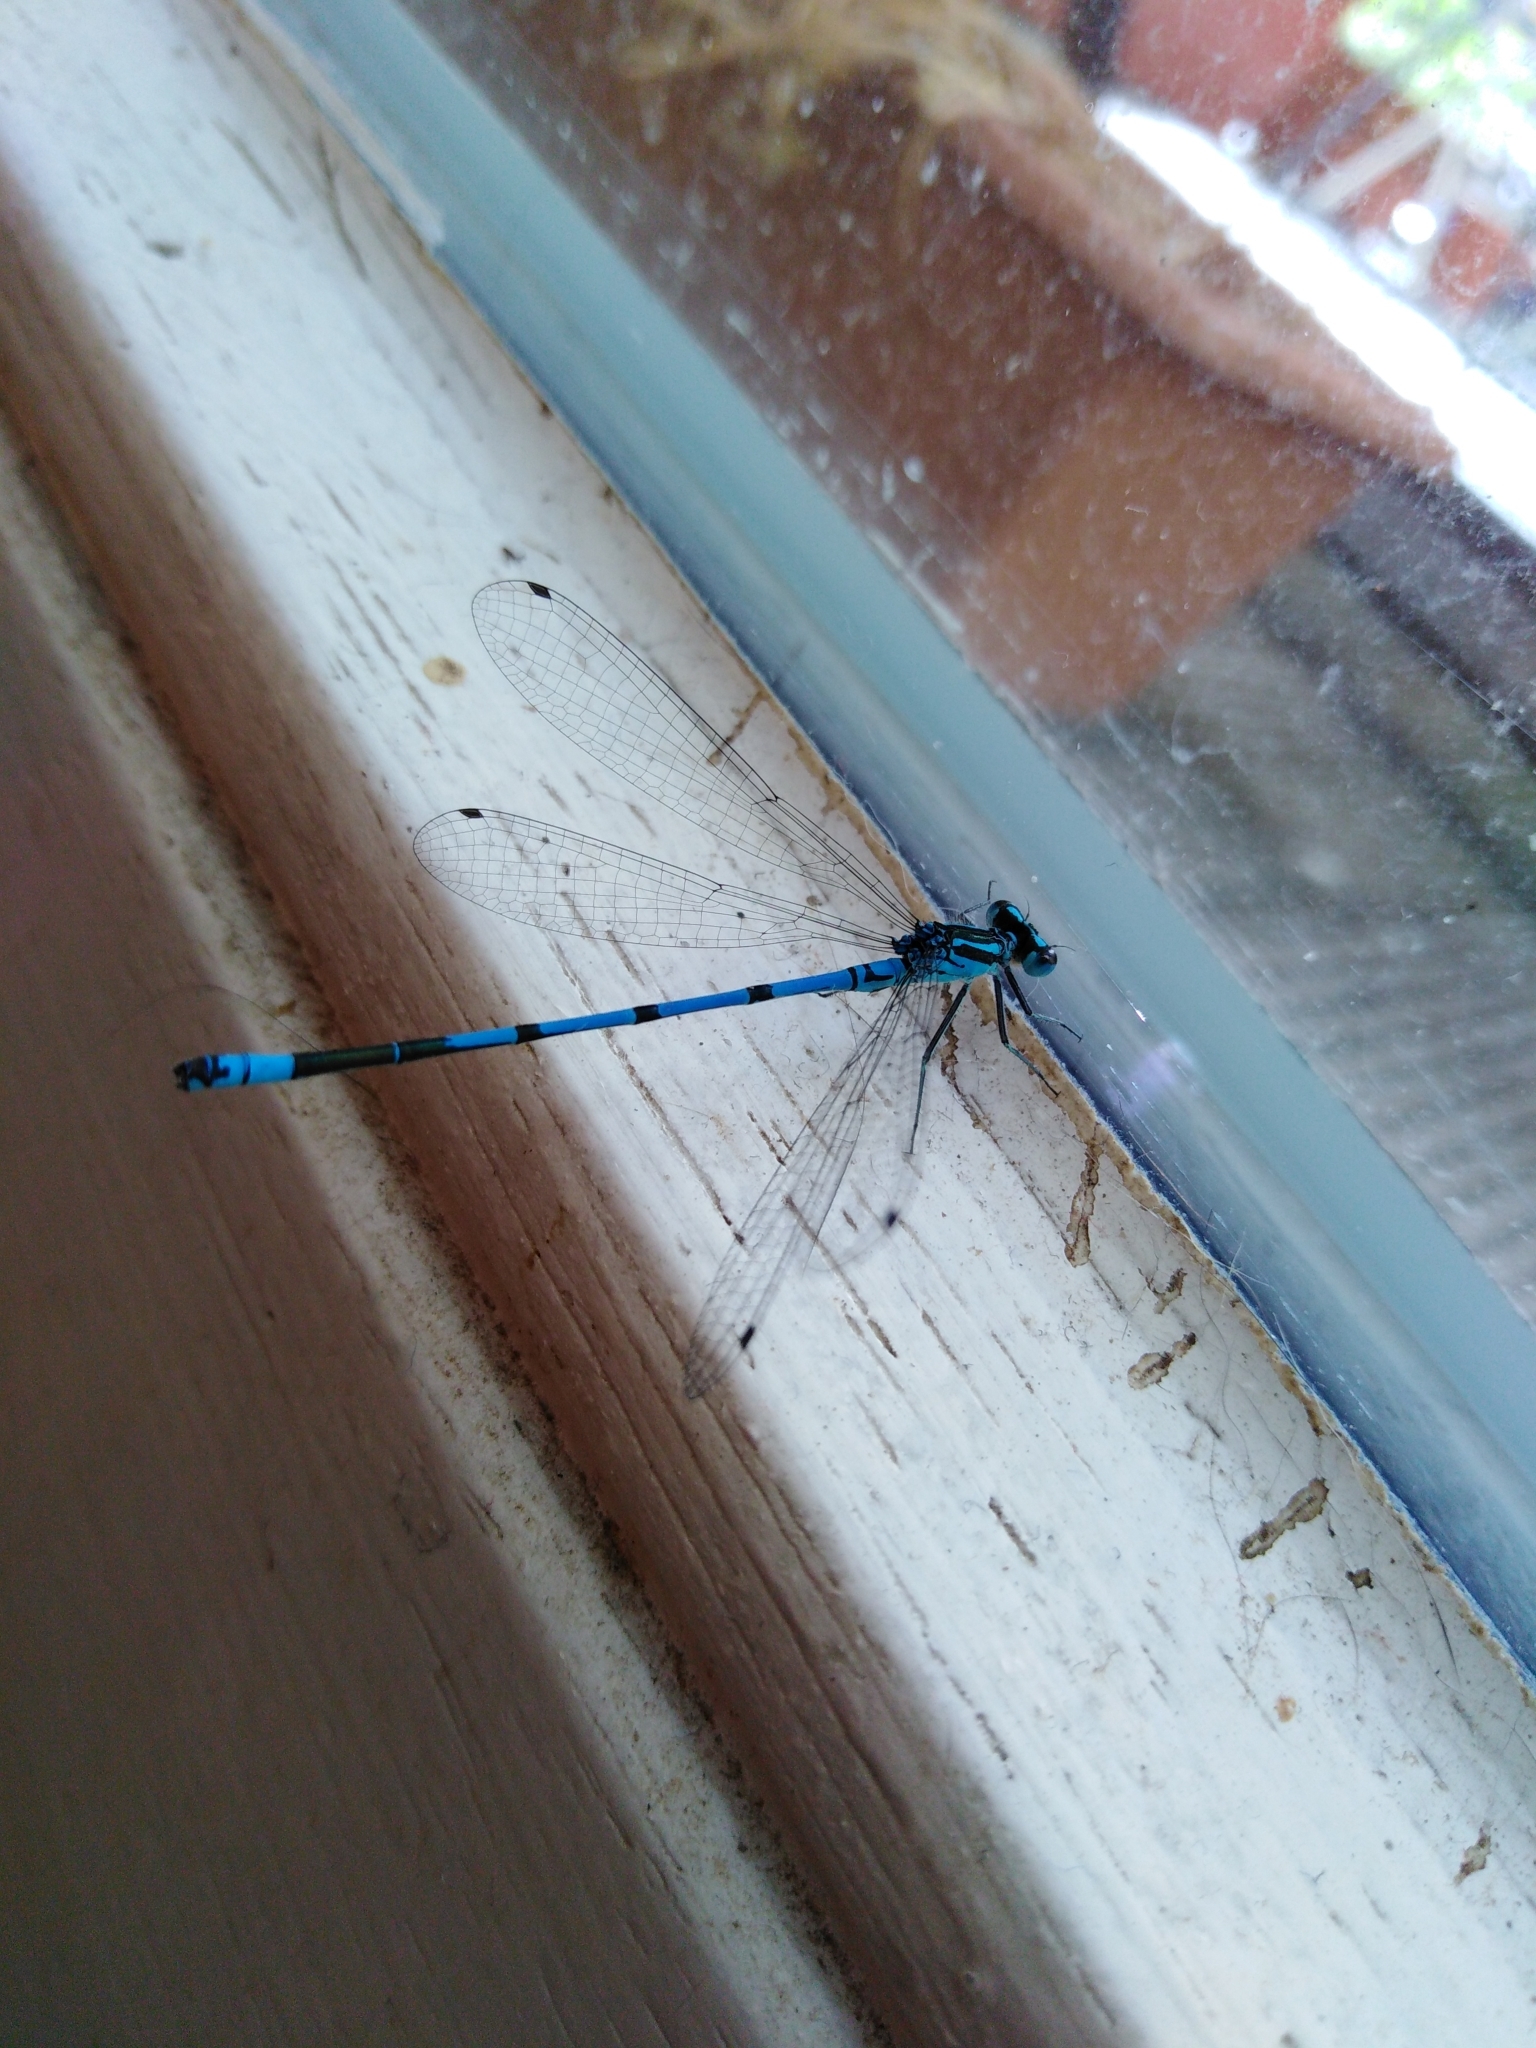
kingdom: Animalia
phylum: Arthropoda
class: Insecta
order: Odonata
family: Coenagrionidae
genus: Coenagrion
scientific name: Coenagrion puella
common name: Azure damselfly
